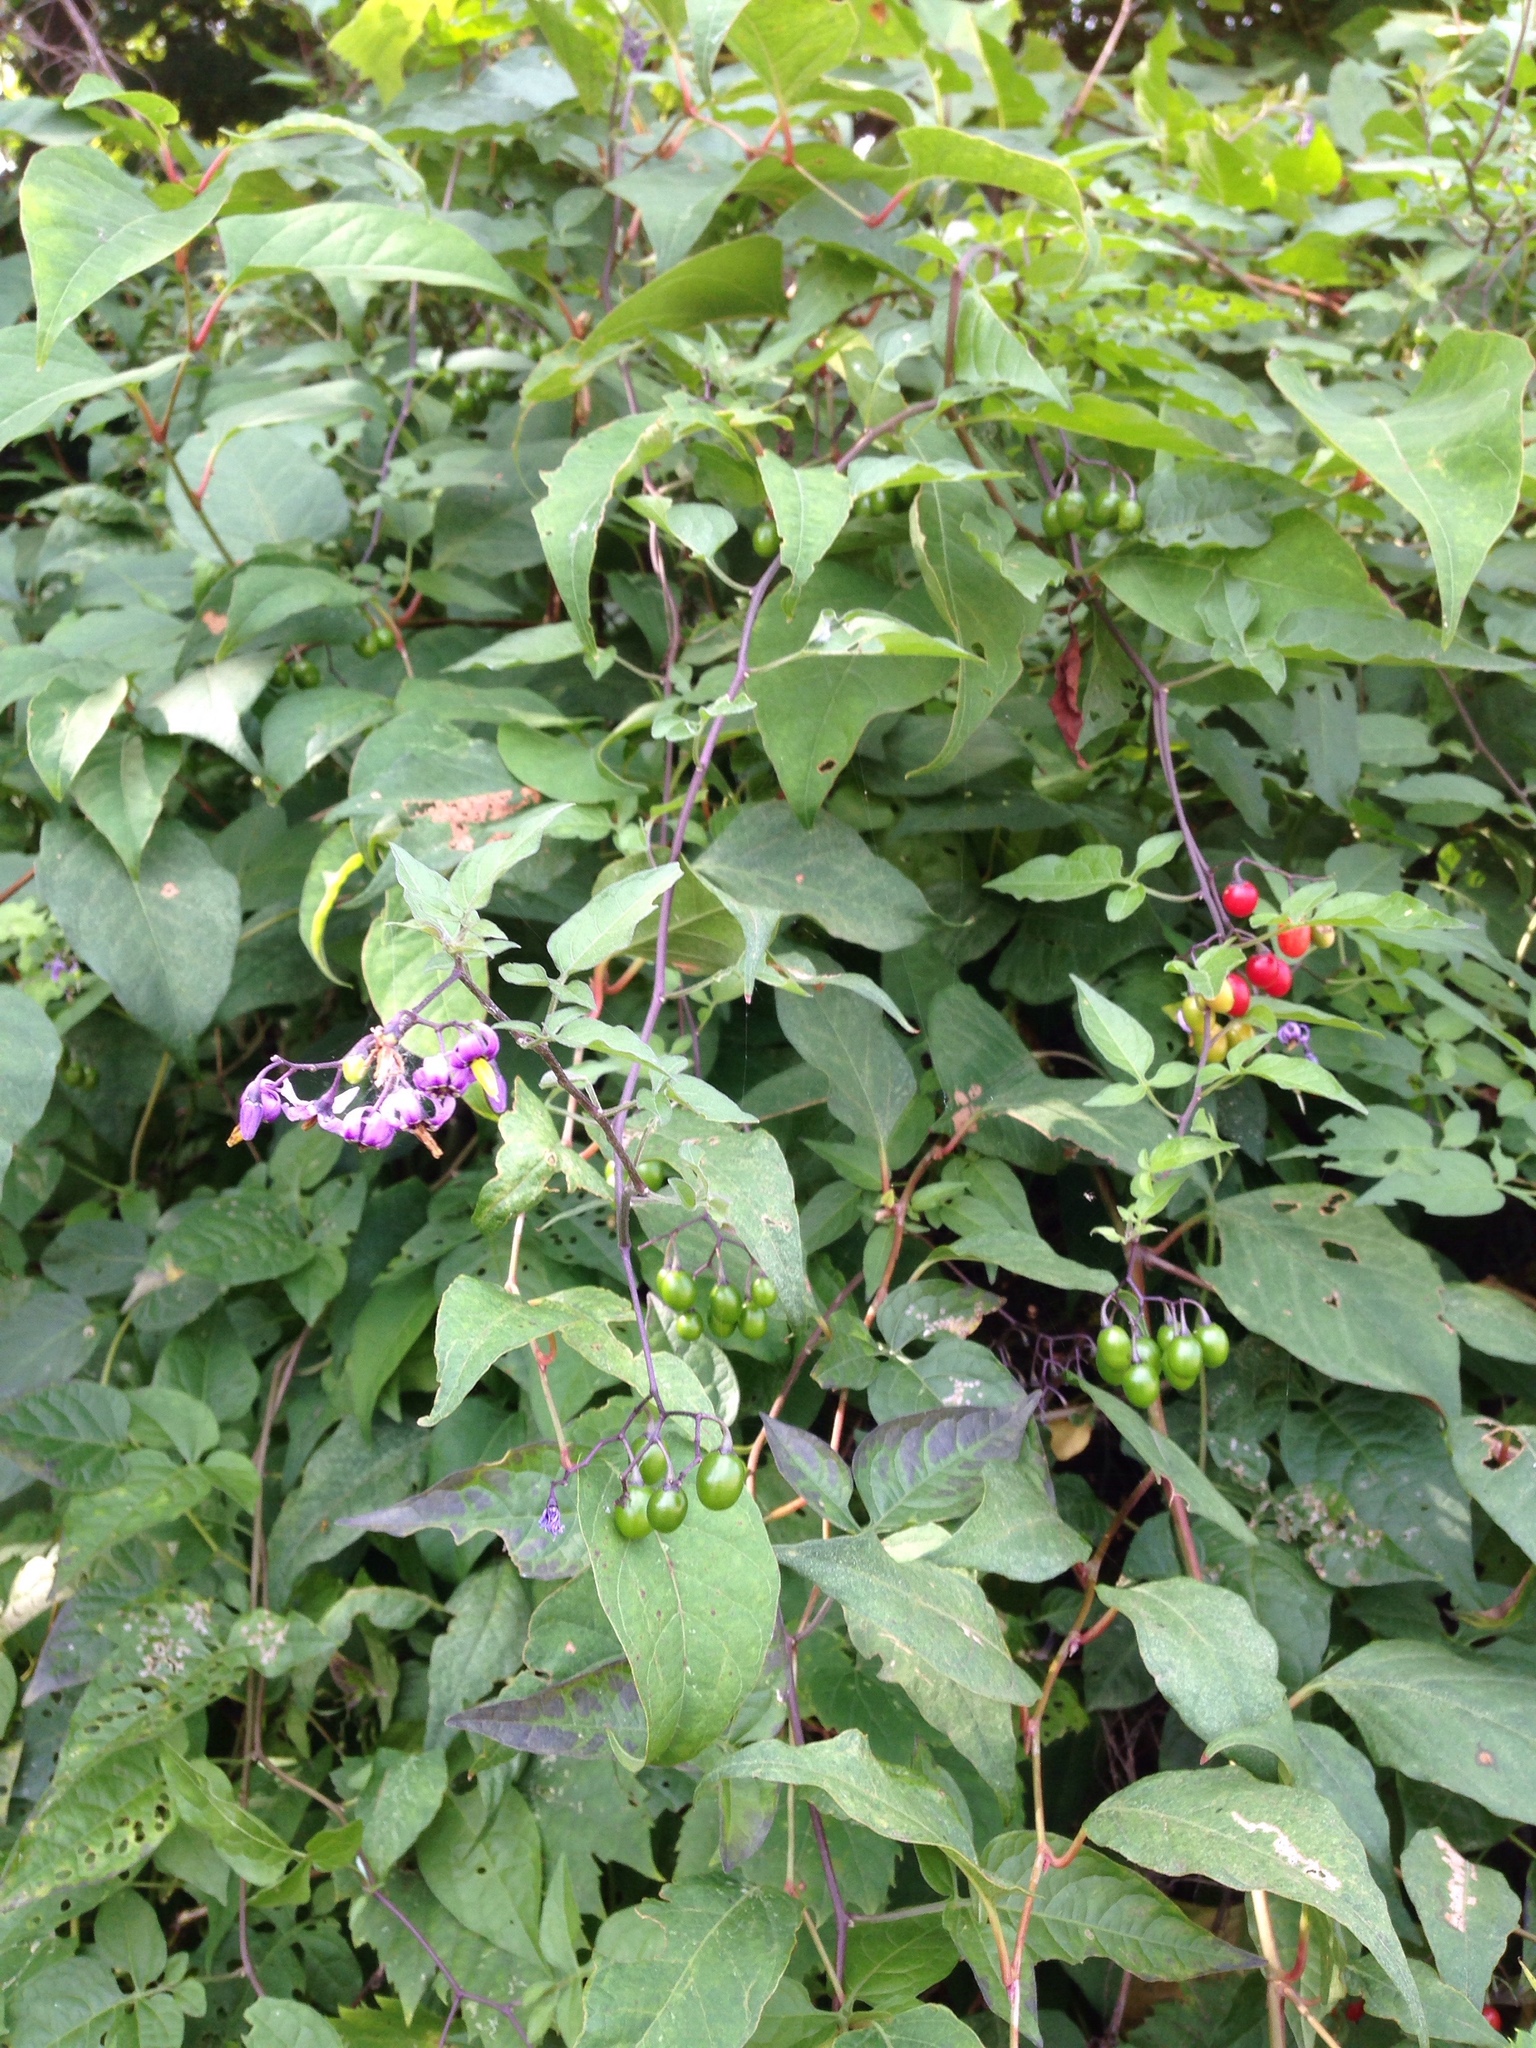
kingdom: Plantae
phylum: Tracheophyta
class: Magnoliopsida
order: Solanales
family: Solanaceae
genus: Solanum
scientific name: Solanum dulcamara
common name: Climbing nightshade
